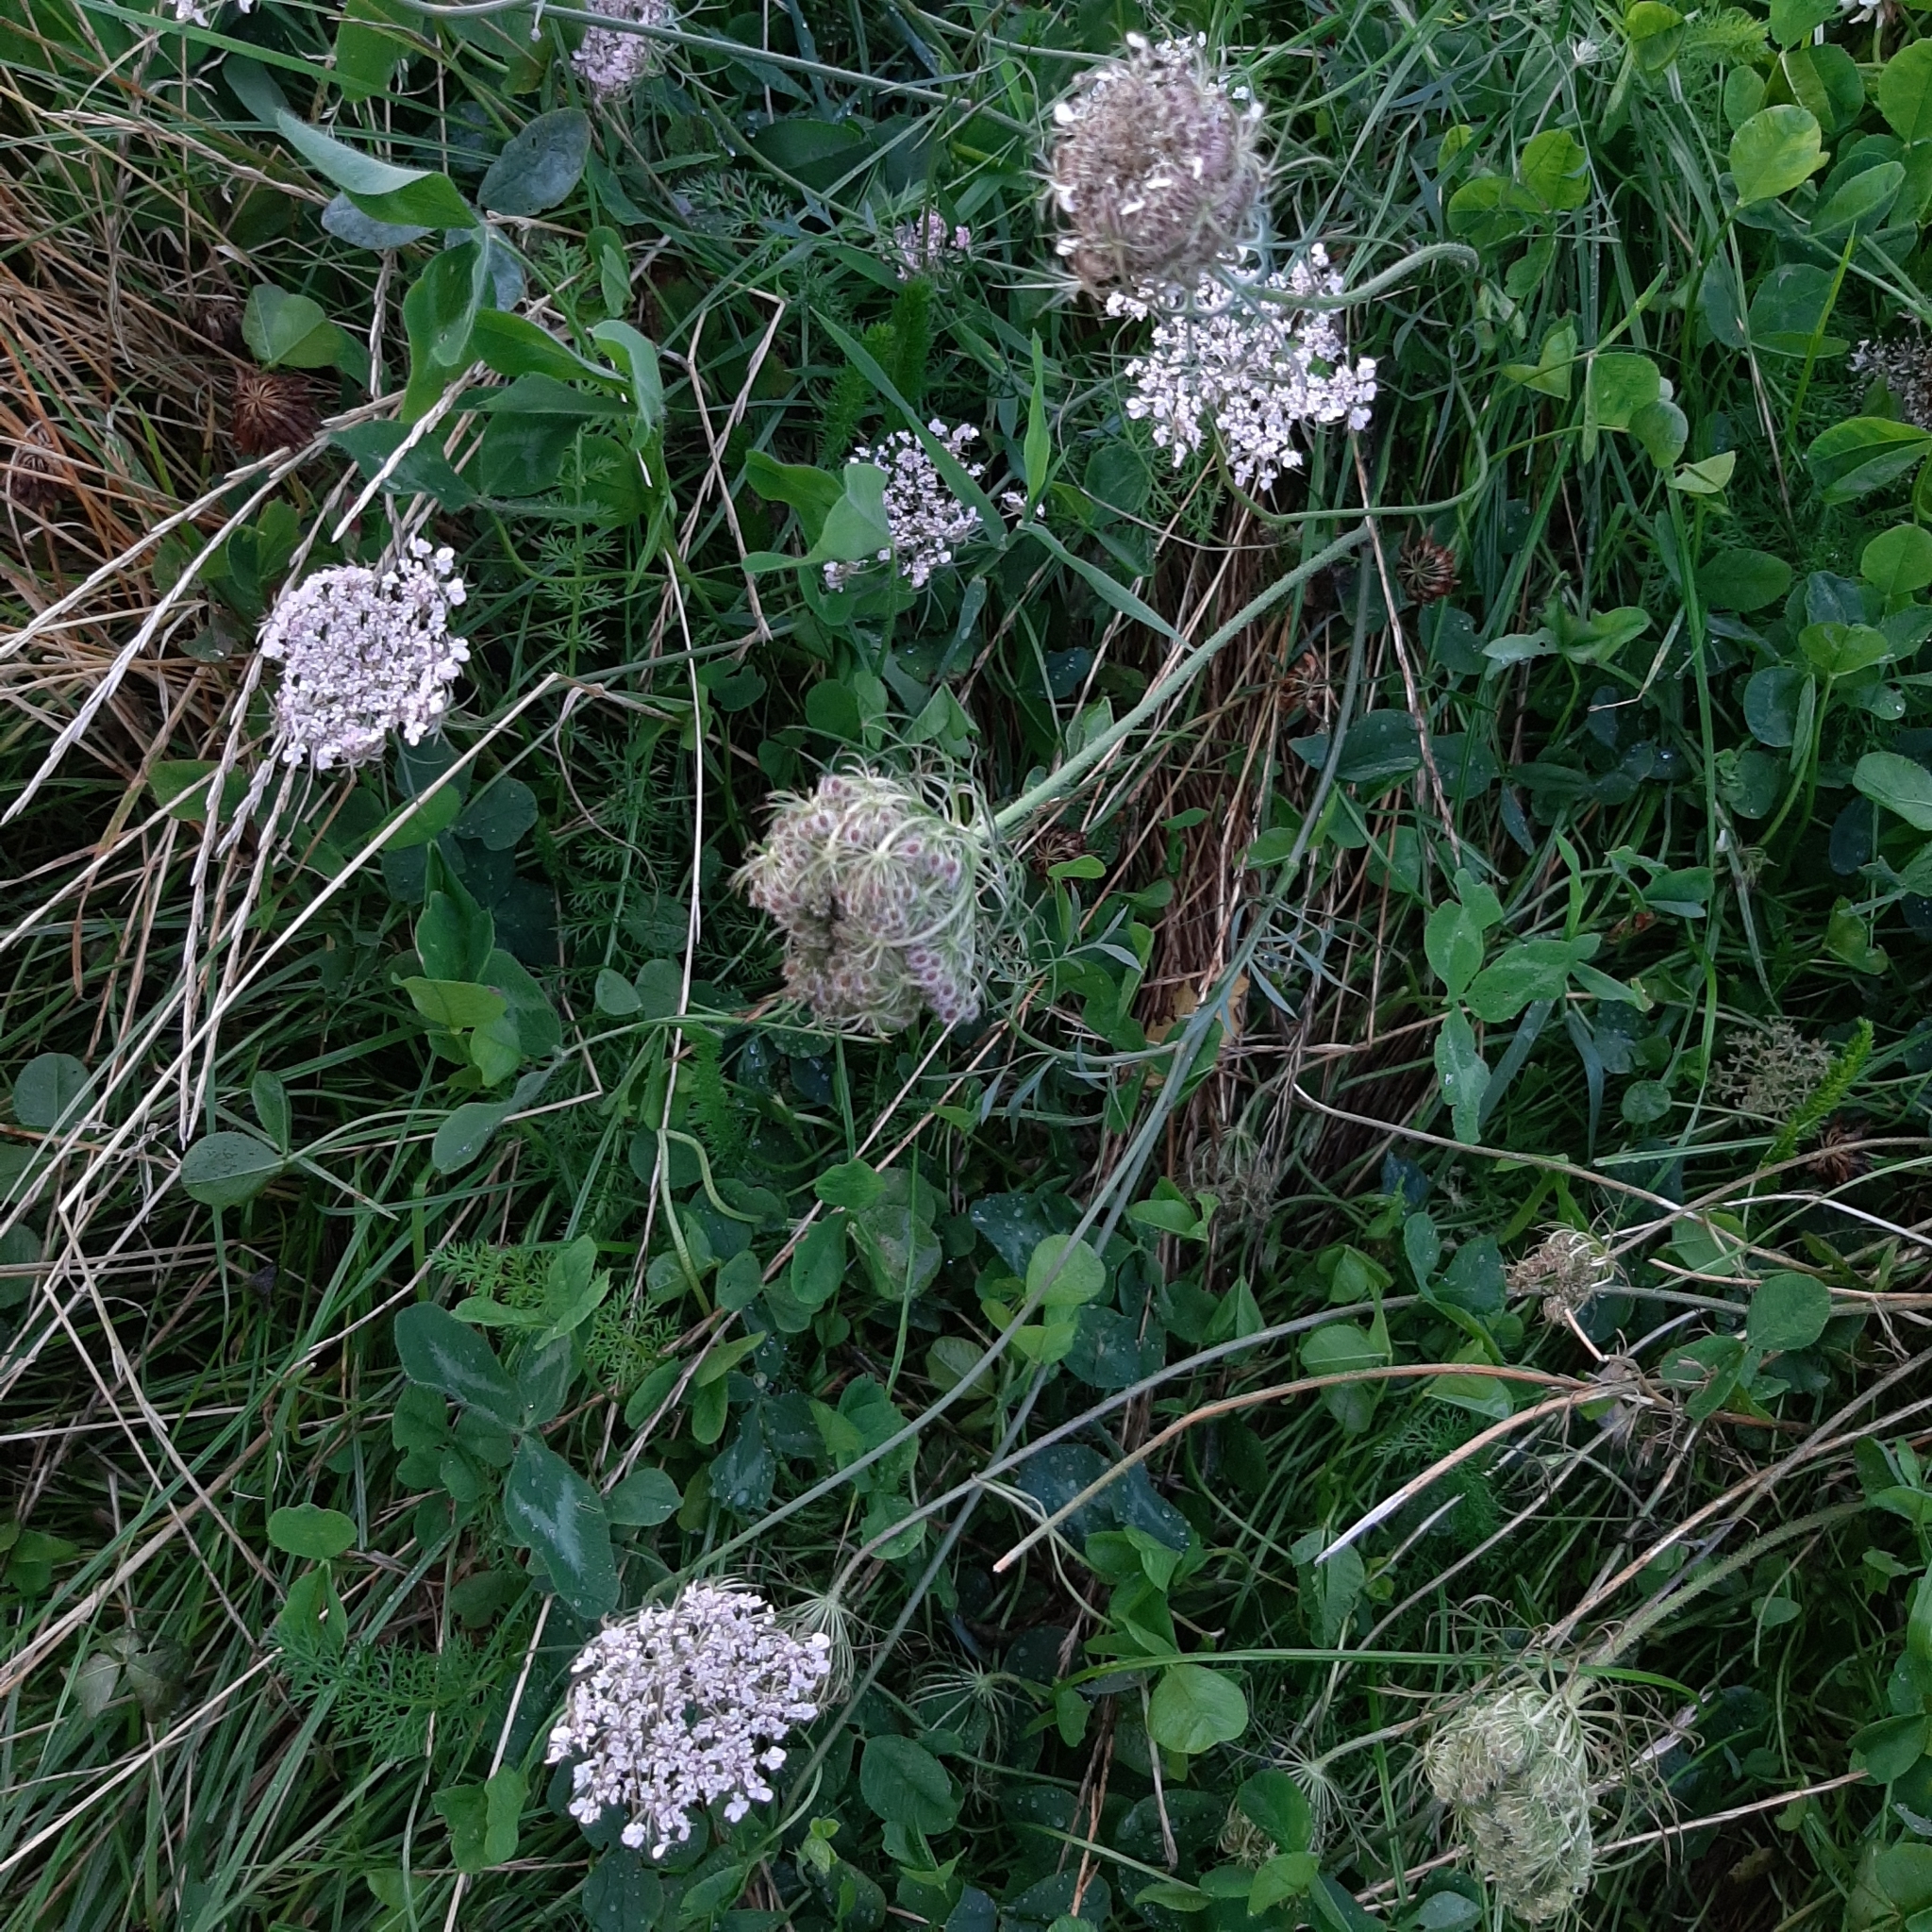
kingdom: Plantae
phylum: Tracheophyta
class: Magnoliopsida
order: Apiales
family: Apiaceae
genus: Daucus
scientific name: Daucus carota
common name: Wild carrot
